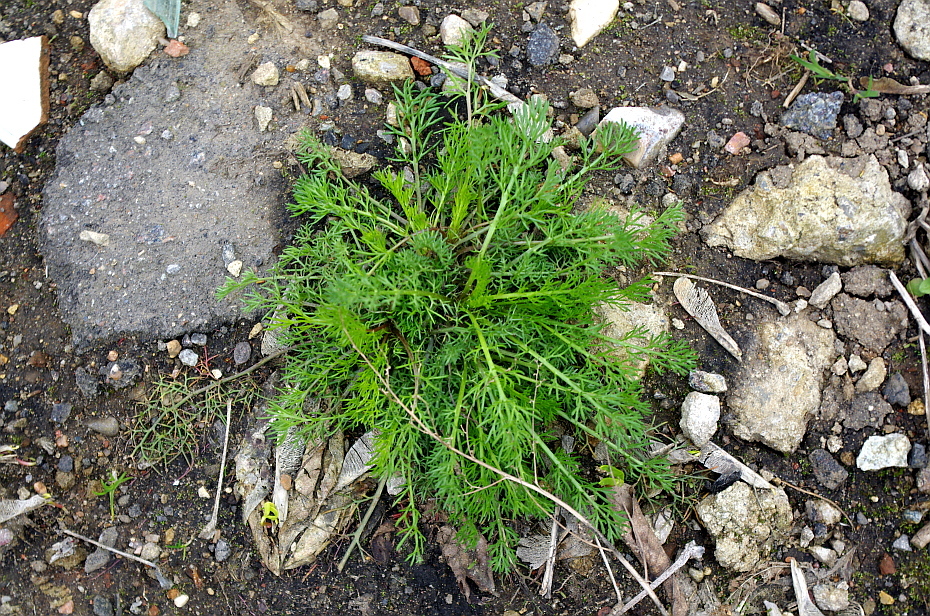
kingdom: Plantae
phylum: Tracheophyta
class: Magnoliopsida
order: Asterales
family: Asteraceae
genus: Tripleurospermum
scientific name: Tripleurospermum inodorum
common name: Scentless mayweed
